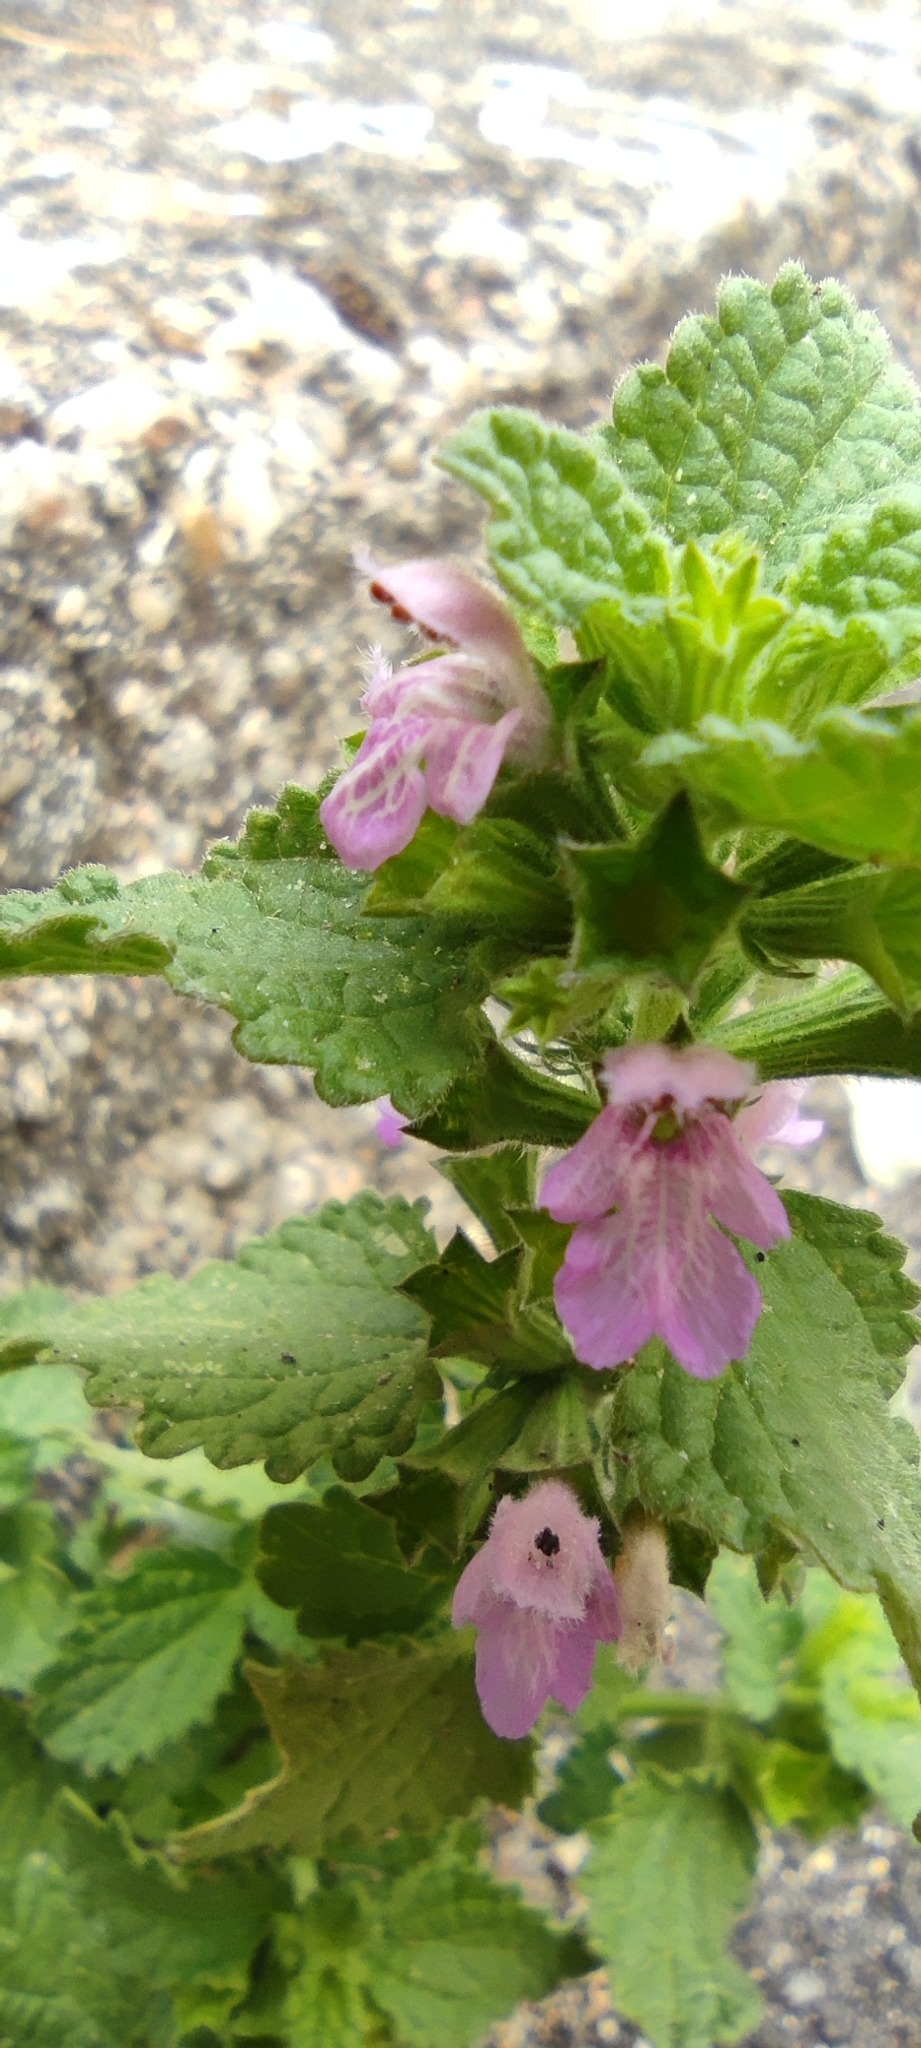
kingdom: Plantae
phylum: Tracheophyta
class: Magnoliopsida
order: Lamiales
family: Lamiaceae
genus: Ballota
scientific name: Ballota nigra
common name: Black horehound
